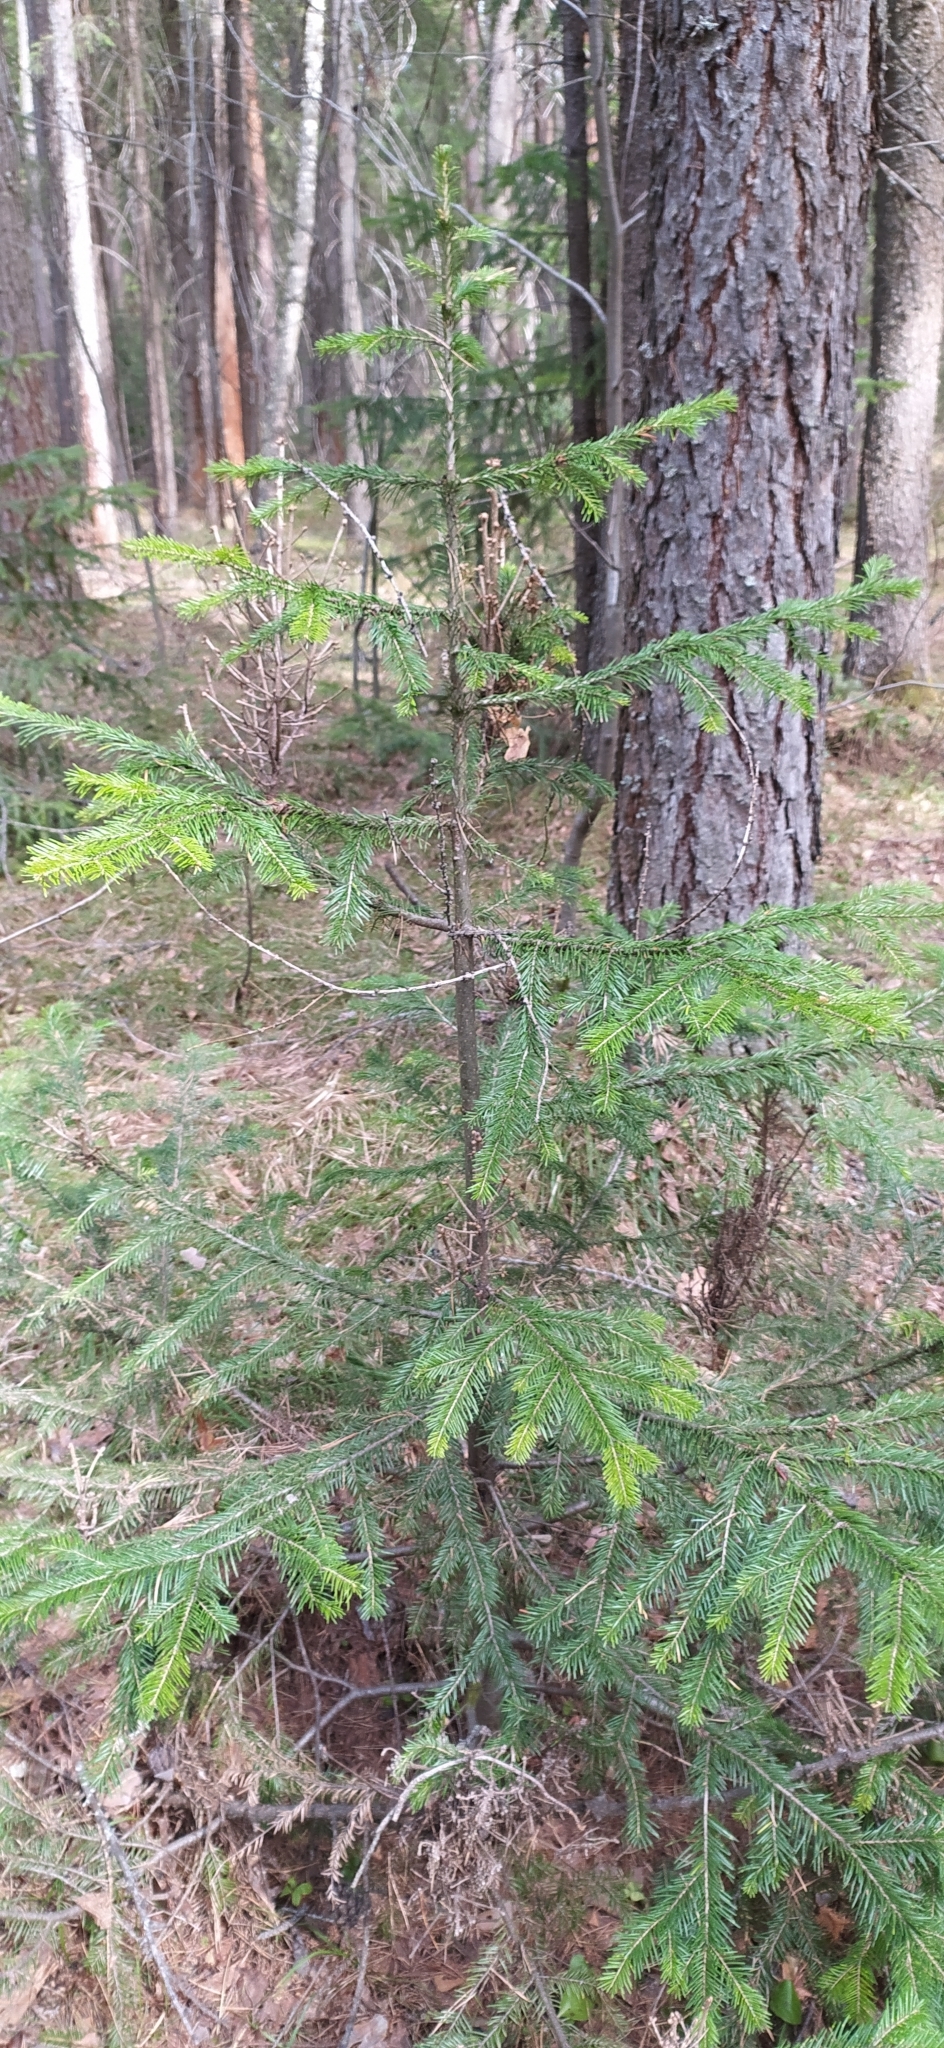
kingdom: Plantae
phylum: Tracheophyta
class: Pinopsida
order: Pinales
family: Pinaceae
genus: Abies
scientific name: Abies sibirica
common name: Siberian fir
